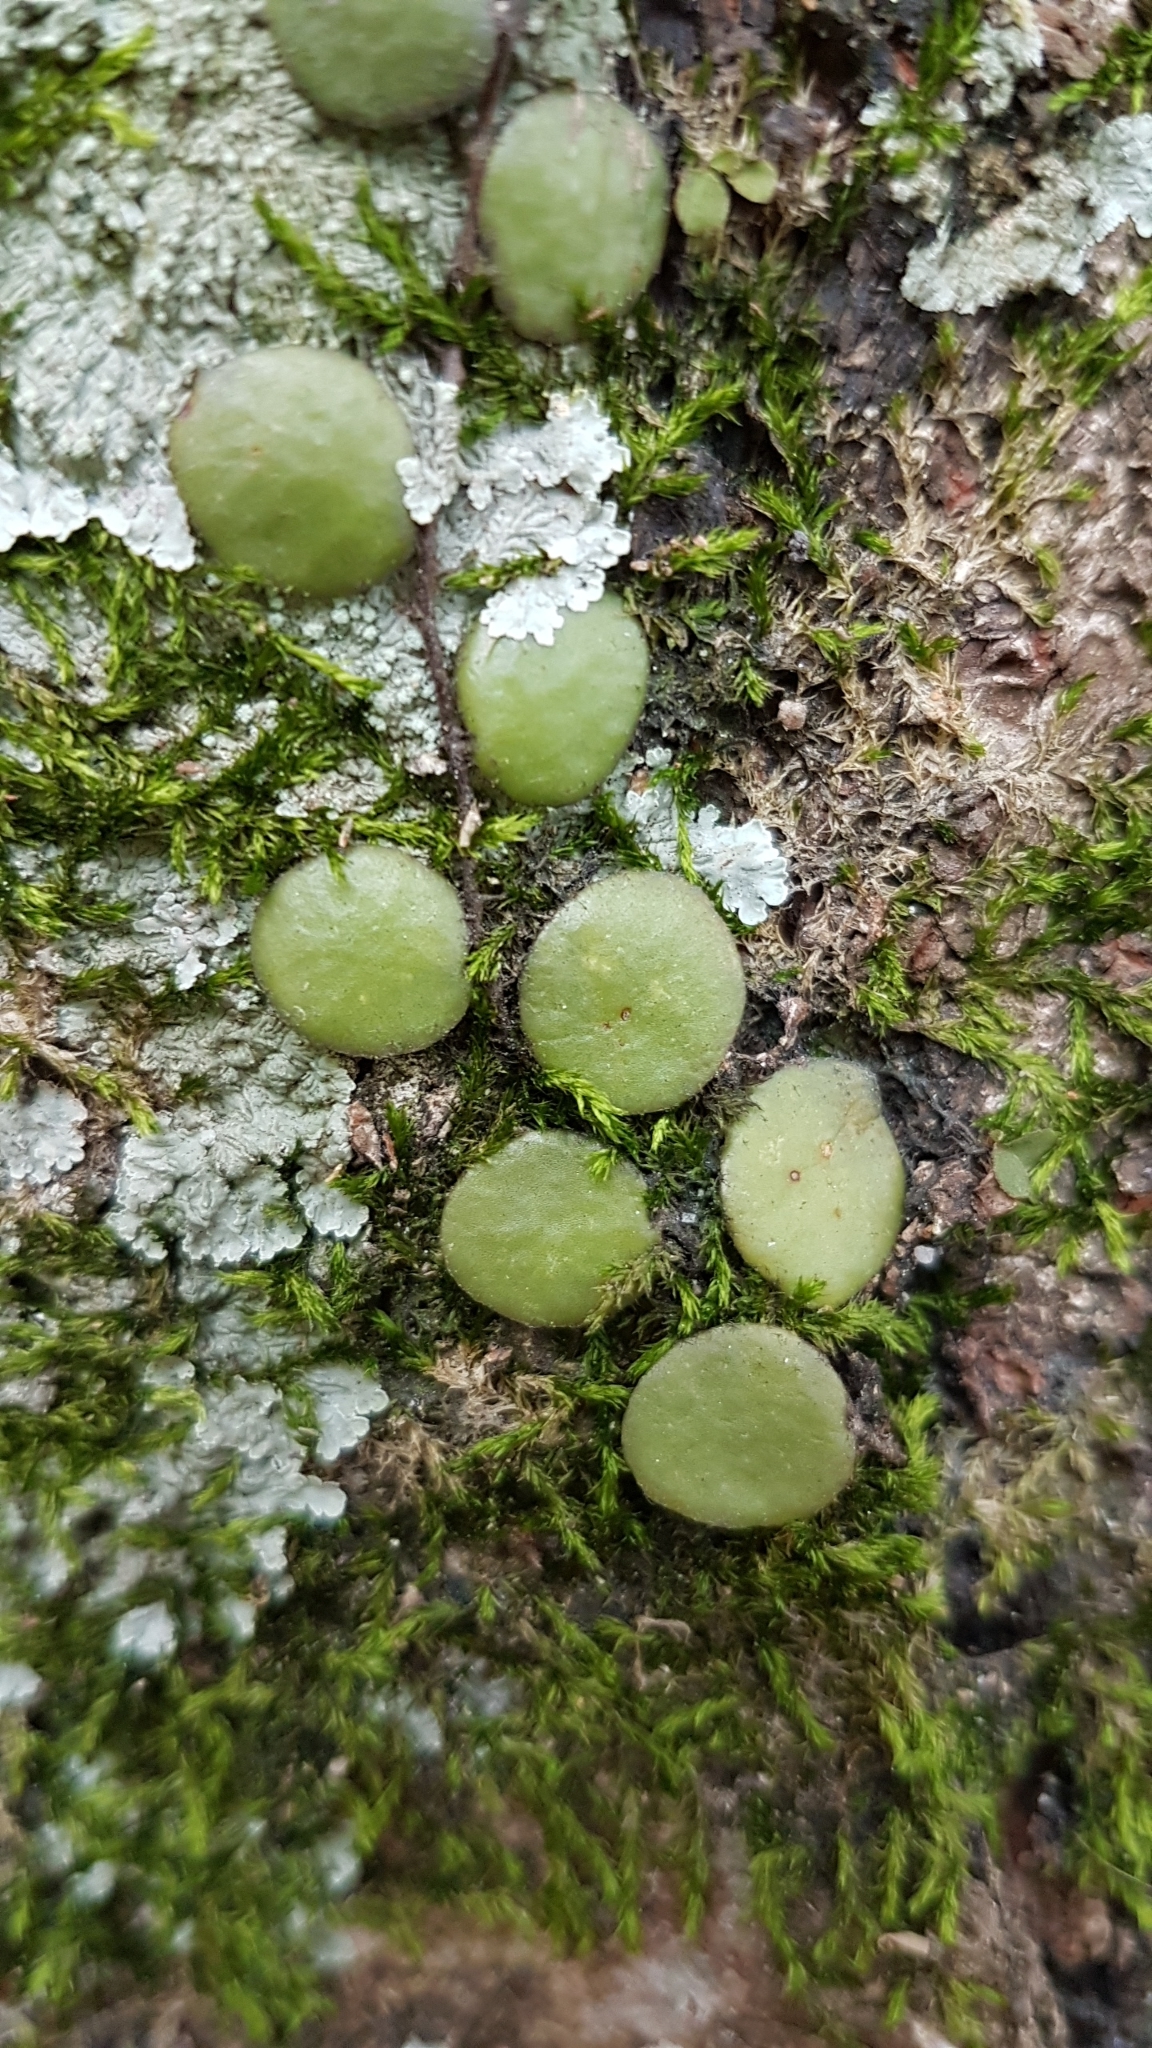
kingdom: Plantae
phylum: Tracheophyta
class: Polypodiopsida
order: Polypodiales
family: Polypodiaceae
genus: Pyrrosia
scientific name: Pyrrosia piloselloides
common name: Epiphytic creeping fern
